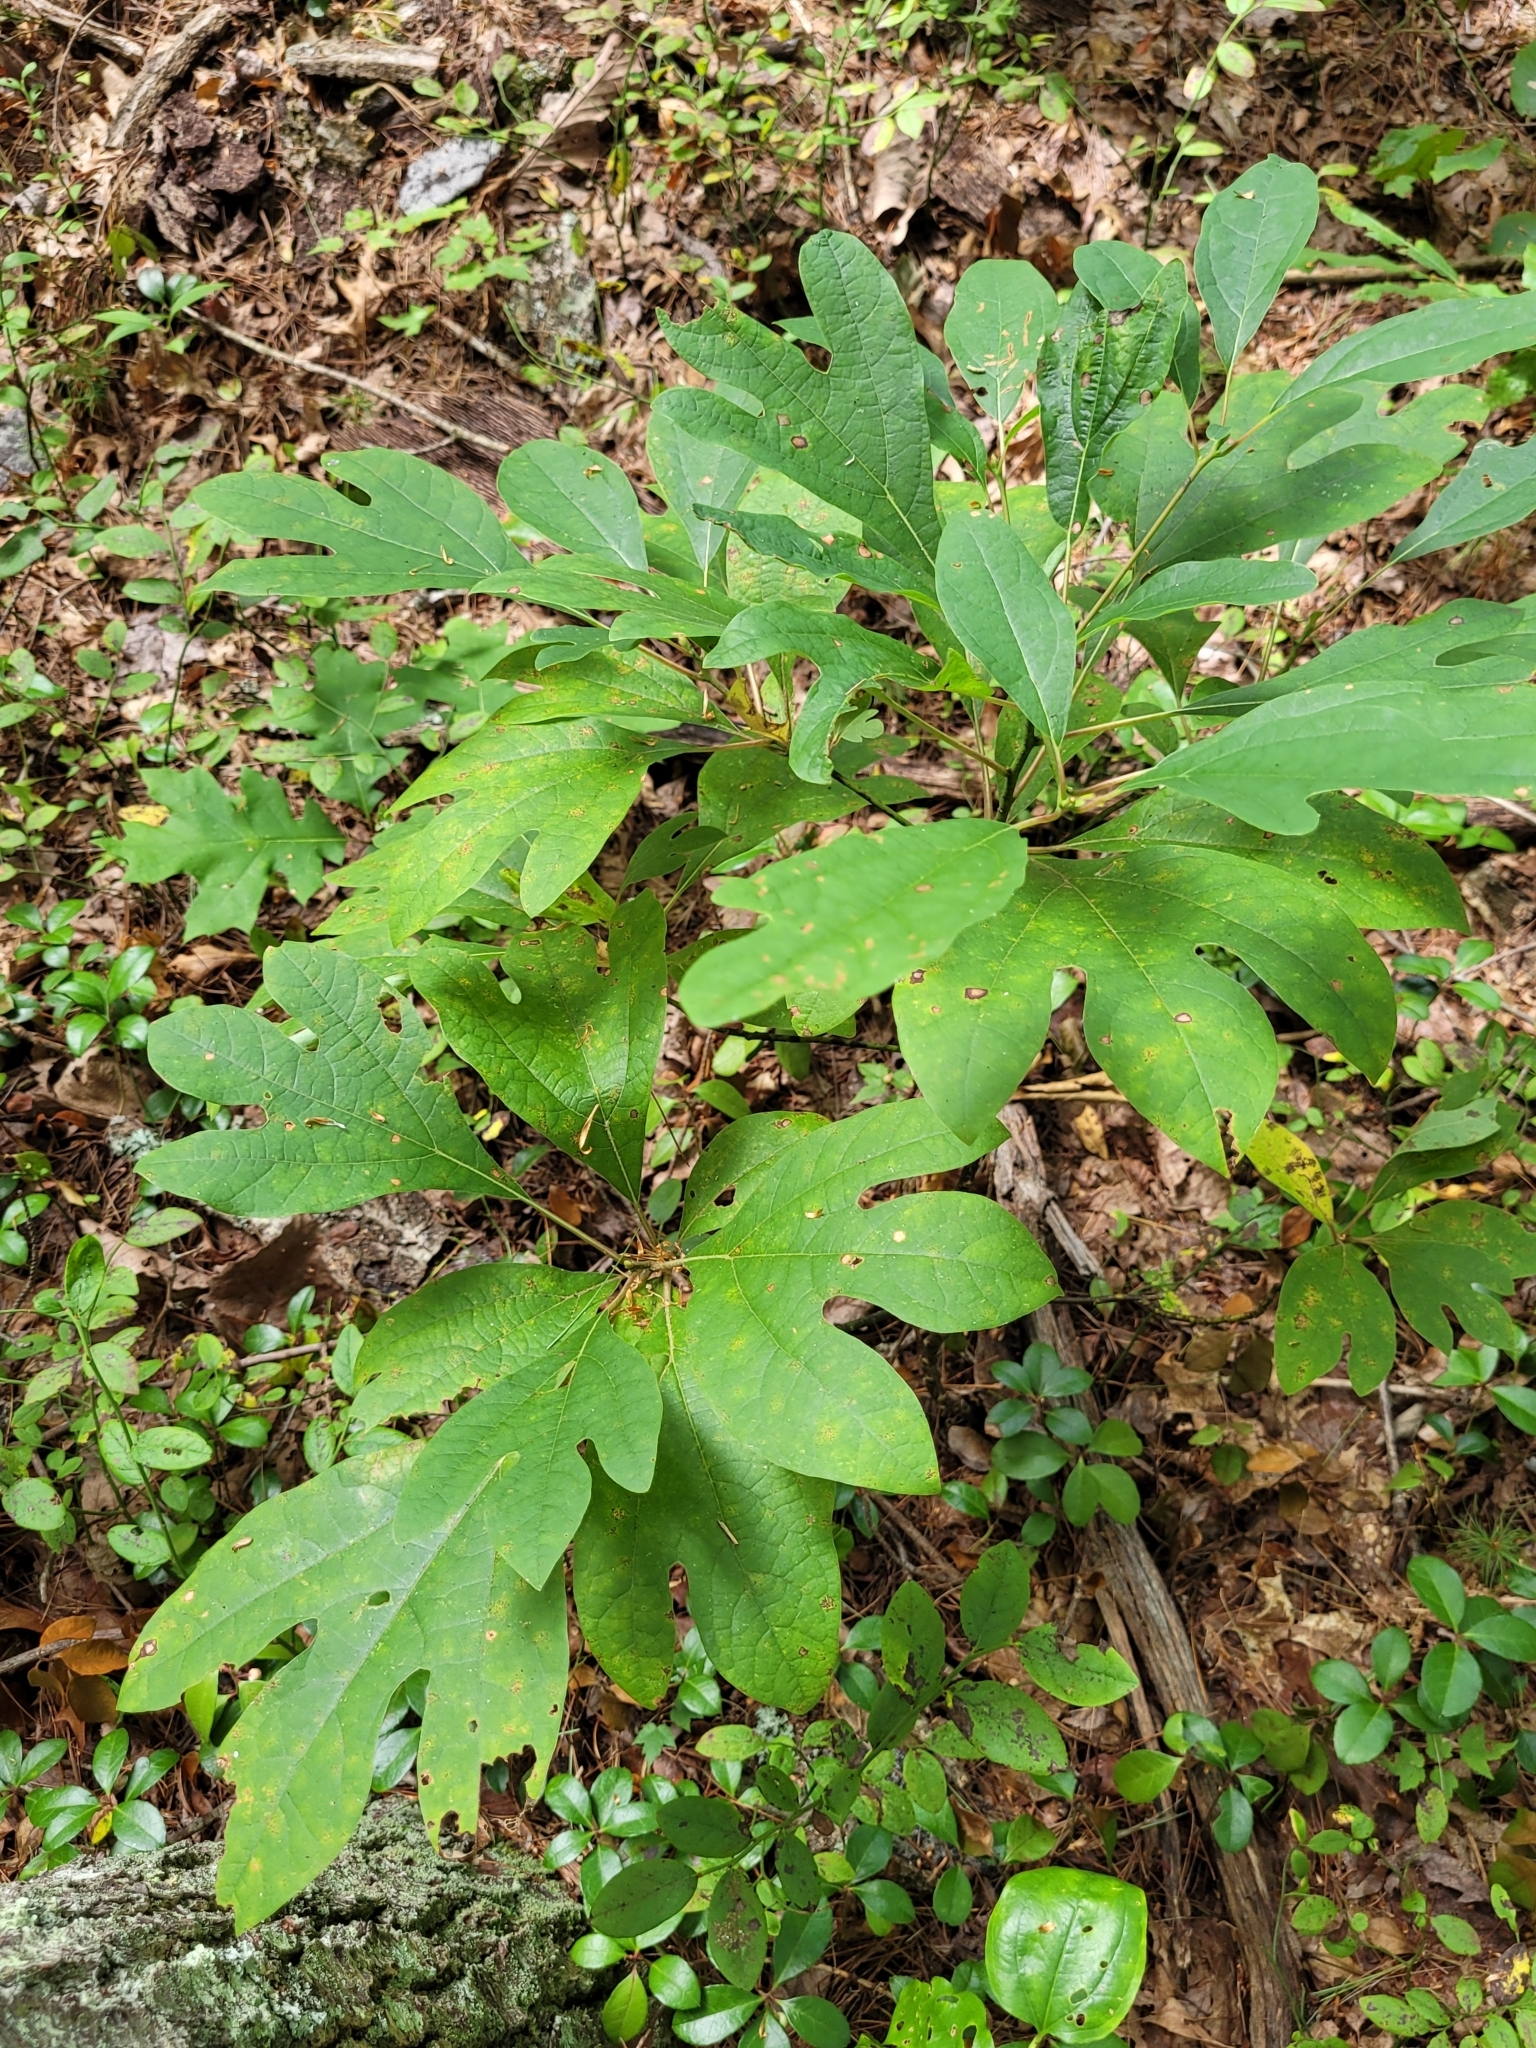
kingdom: Plantae
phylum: Tracheophyta
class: Magnoliopsida
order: Laurales
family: Lauraceae
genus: Sassafras
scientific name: Sassafras albidum
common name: Sassafras
